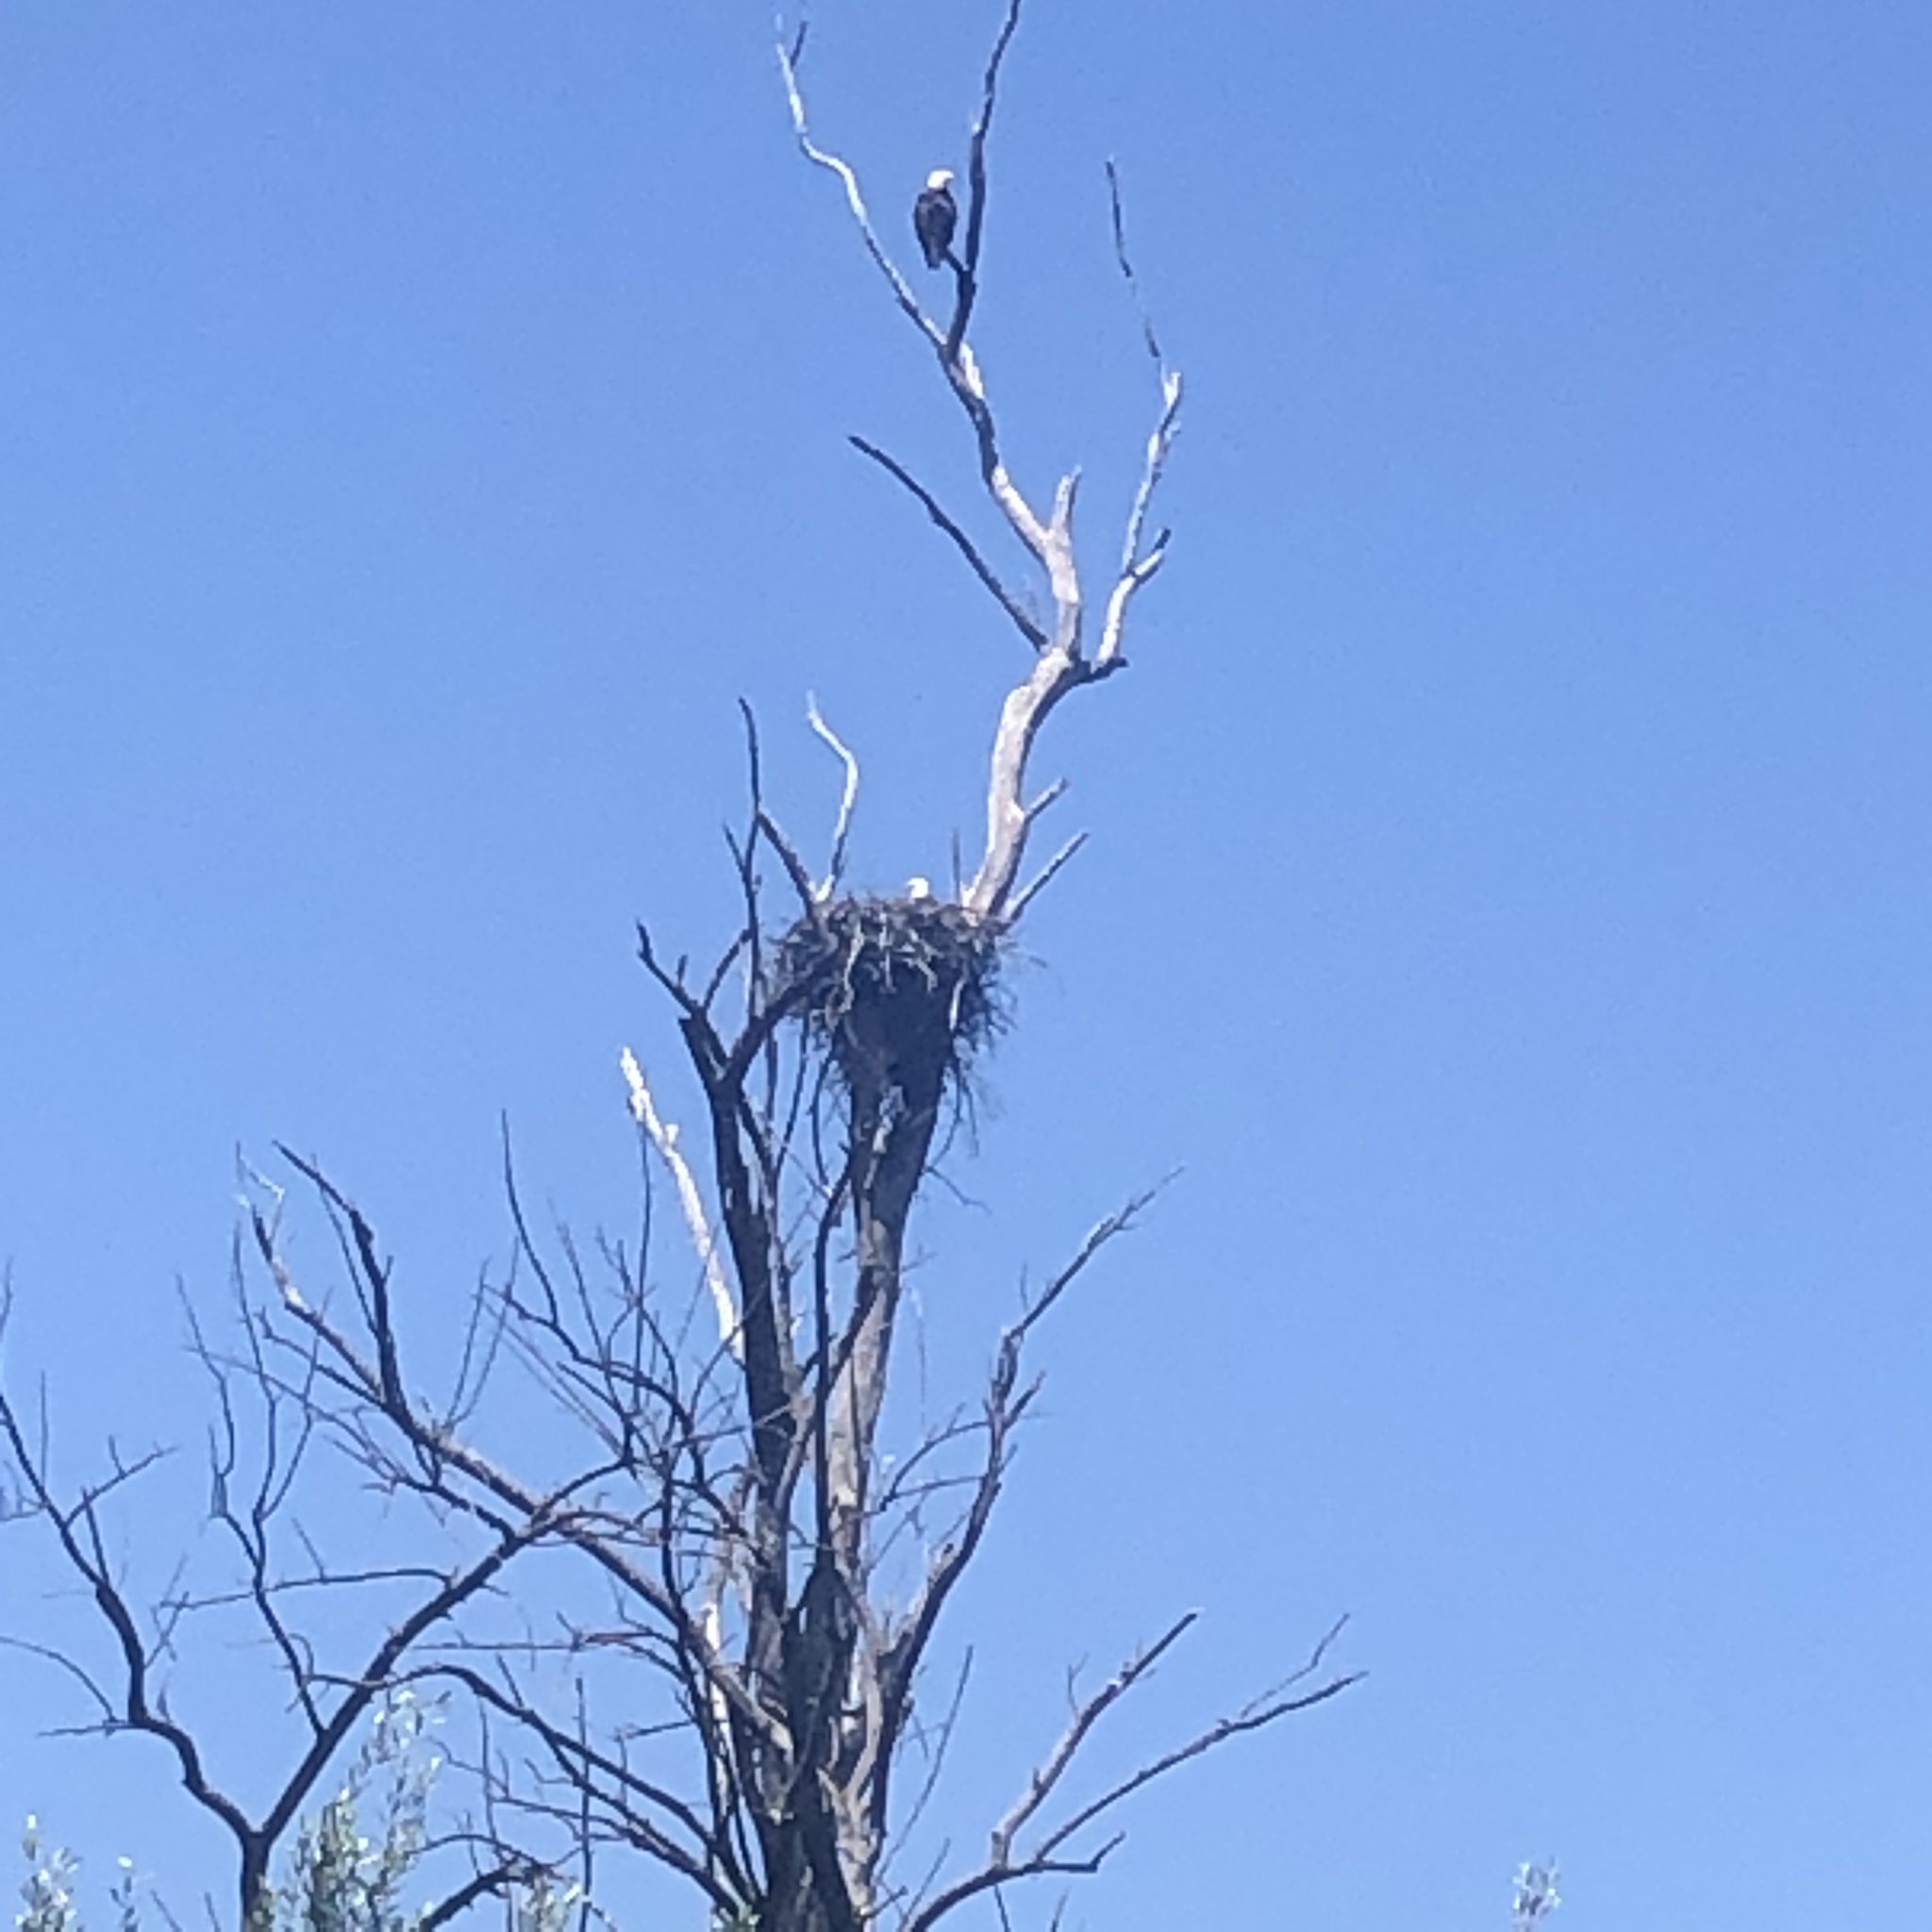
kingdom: Animalia
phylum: Chordata
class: Aves
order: Accipitriformes
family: Accipitridae
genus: Haliaeetus
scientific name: Haliaeetus leucocephalus
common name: Bald eagle
